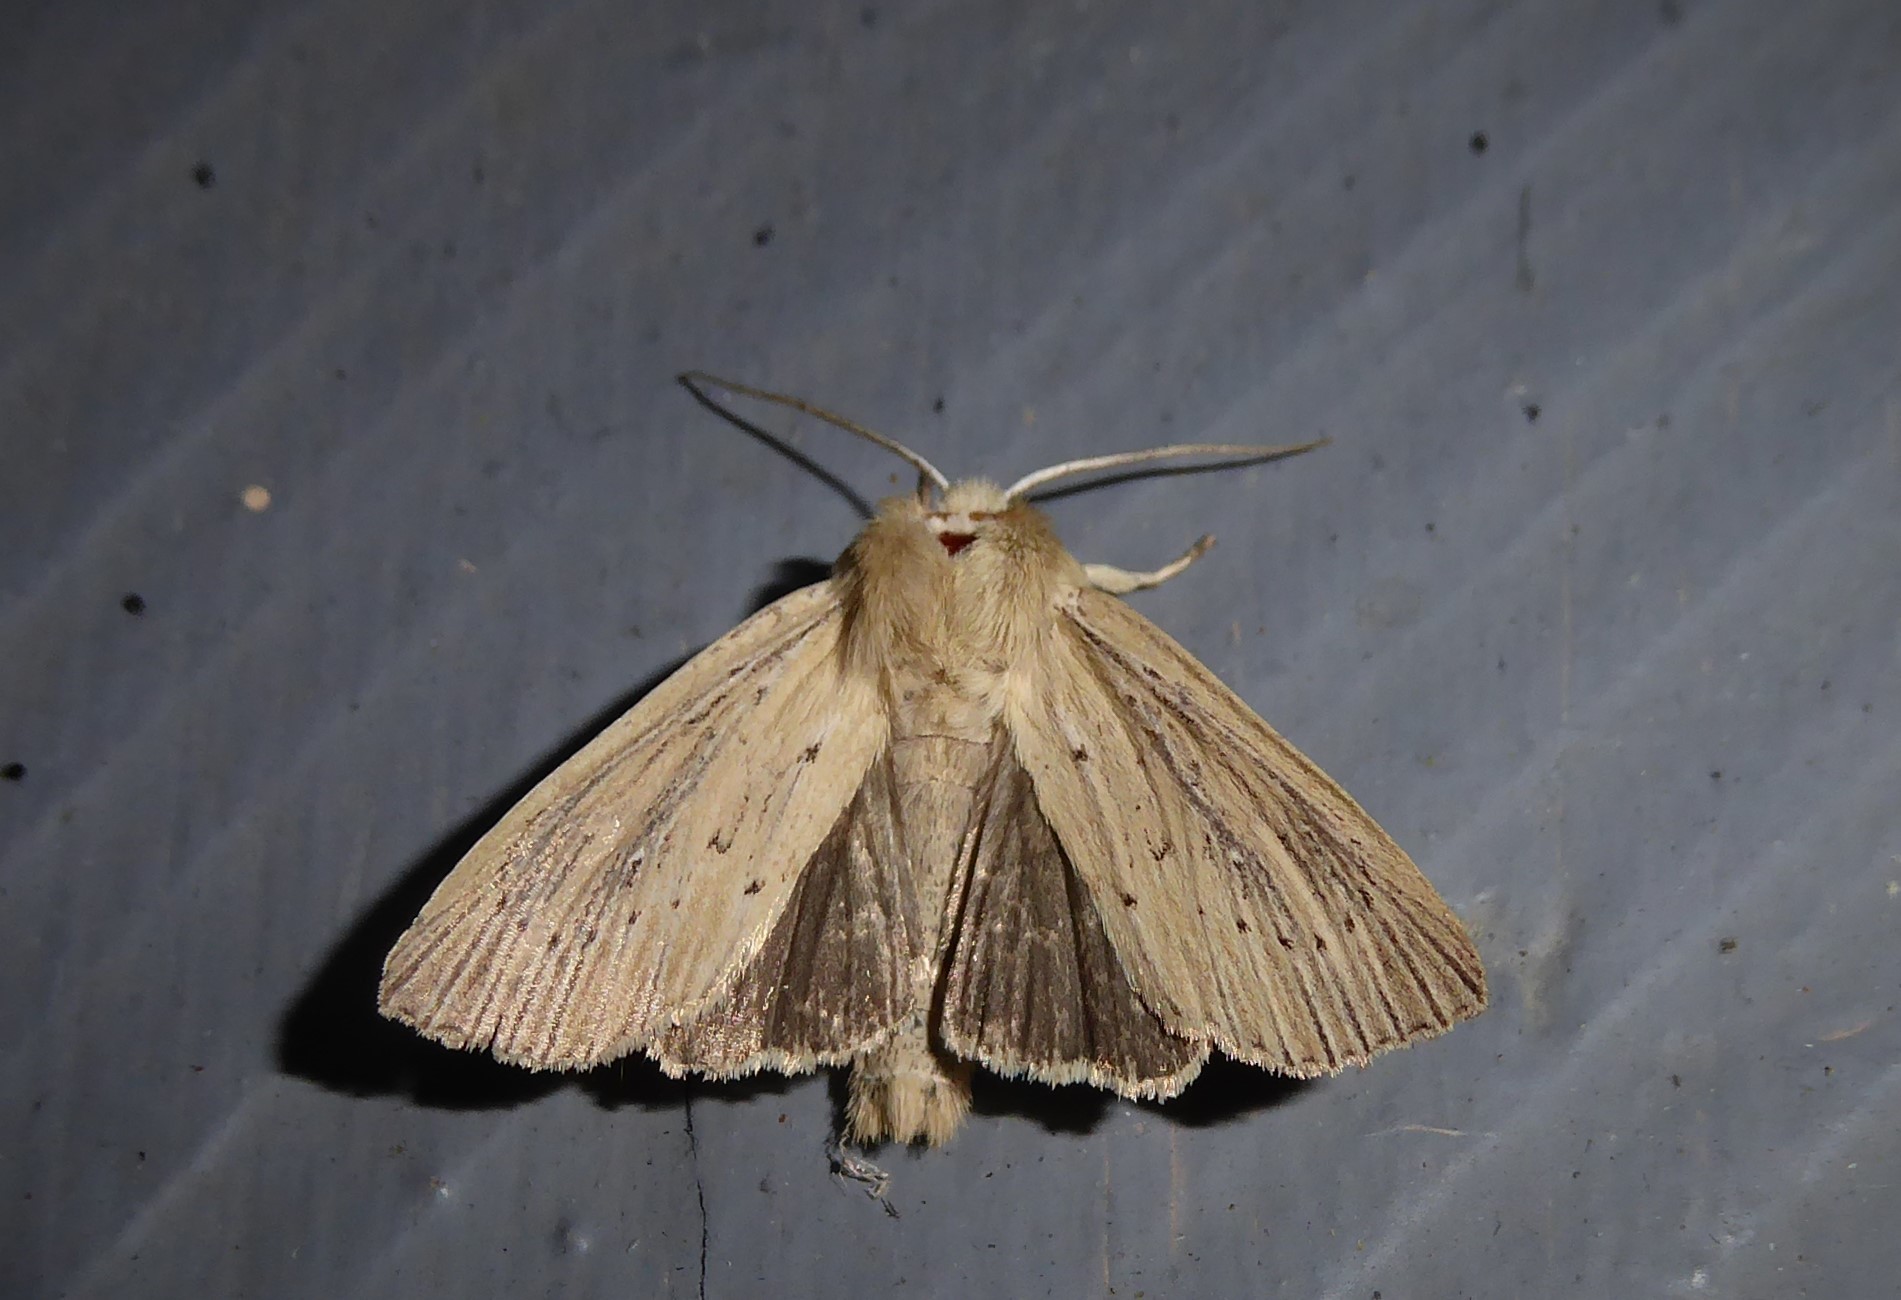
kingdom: Animalia
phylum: Arthropoda
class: Insecta
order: Lepidoptera
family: Noctuidae
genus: Ichneutica
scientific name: Ichneutica arotis
